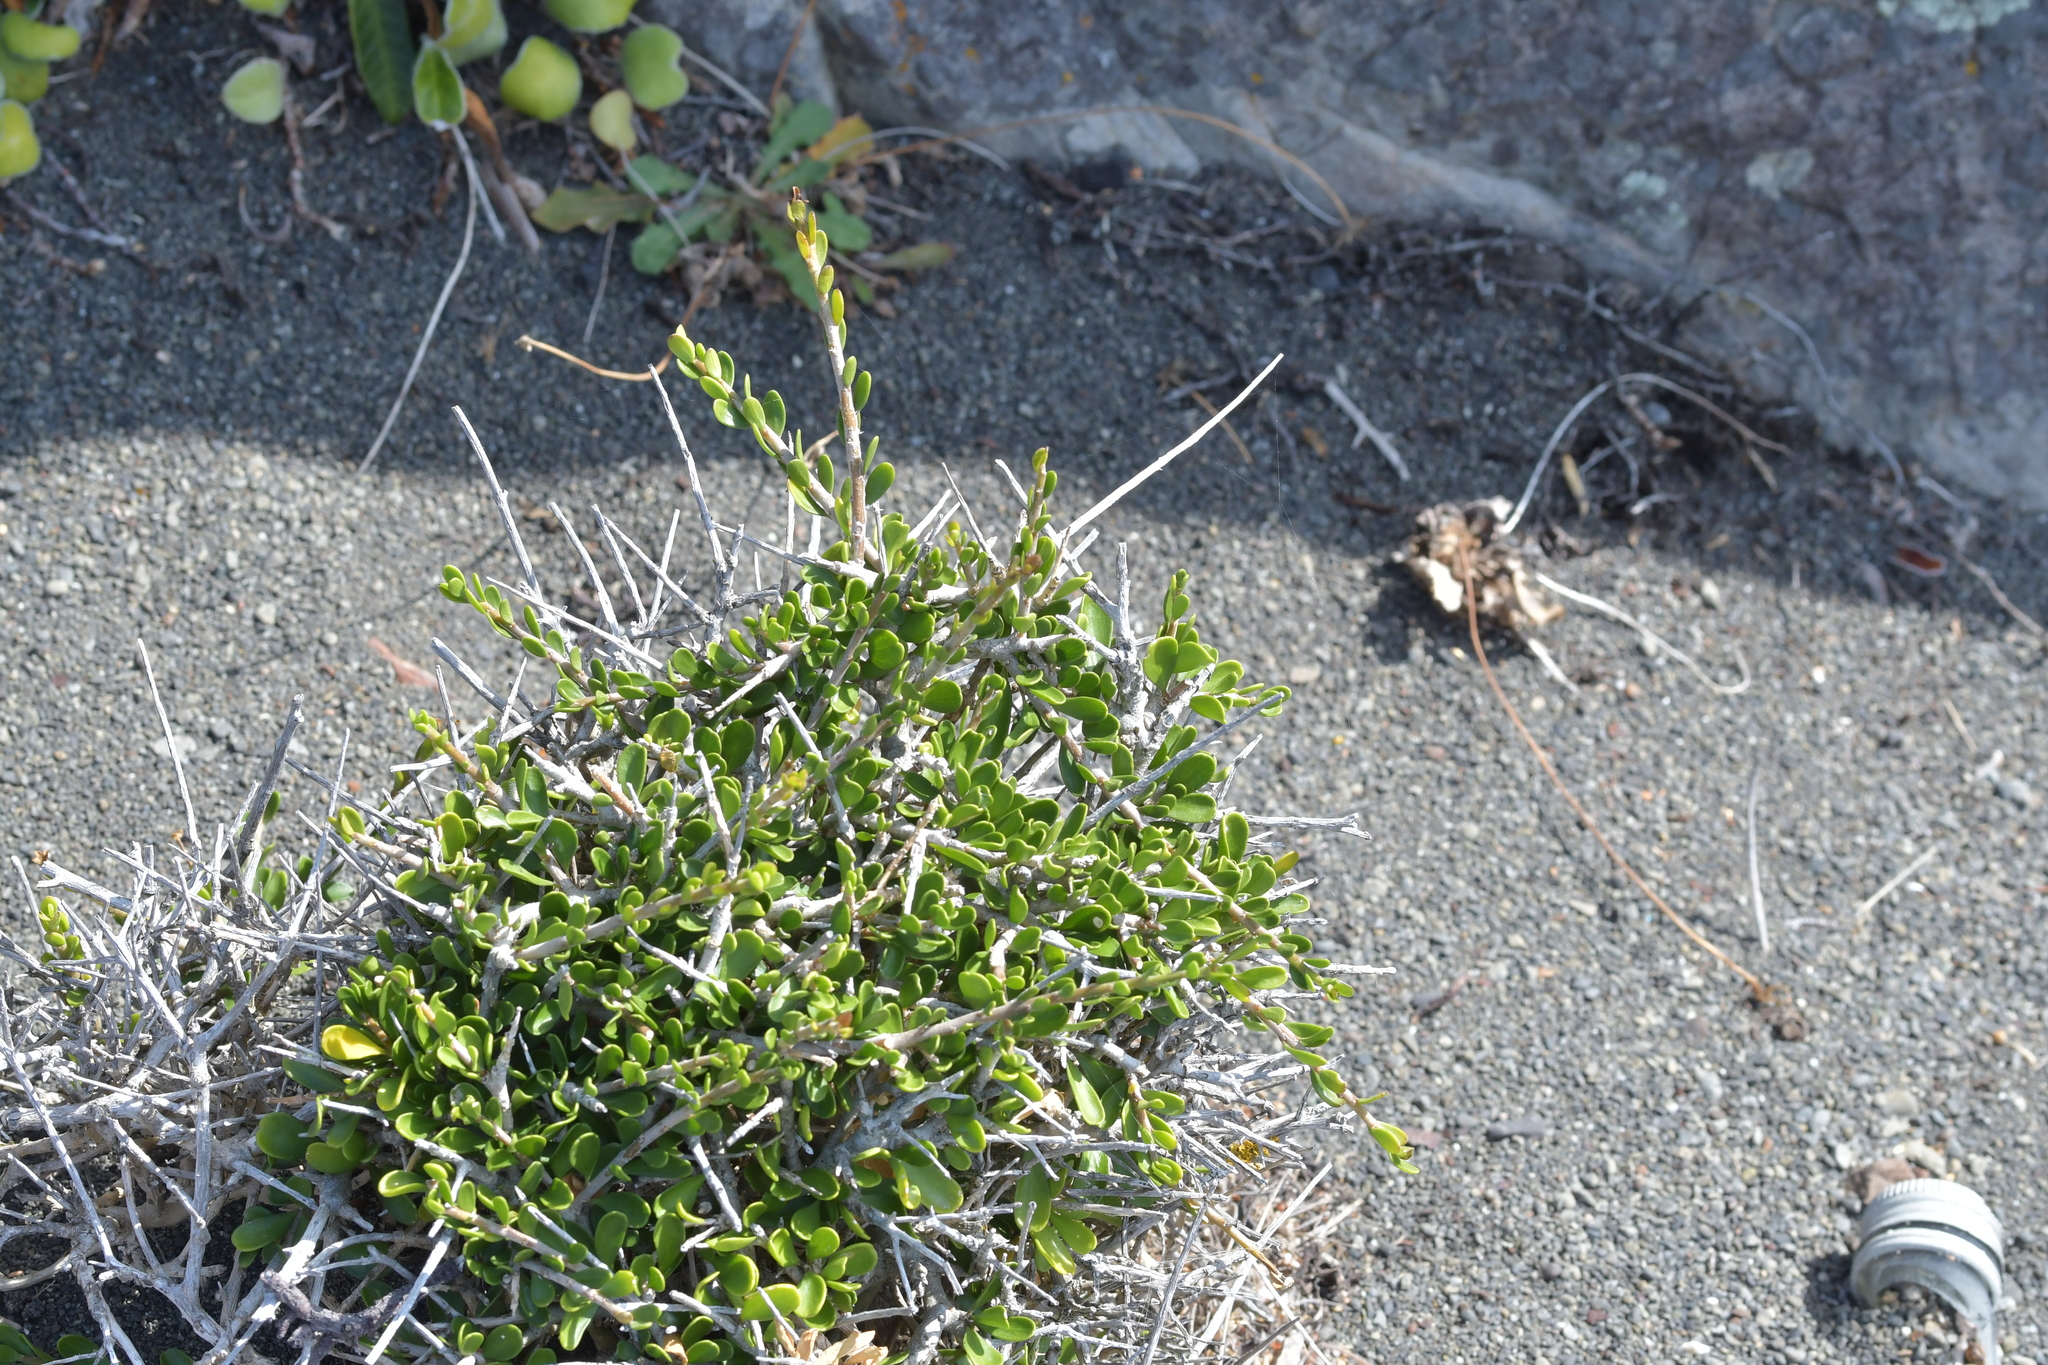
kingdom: Plantae
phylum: Tracheophyta
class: Magnoliopsida
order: Malpighiales
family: Violaceae
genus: Melicytus
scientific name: Melicytus crassifolius
